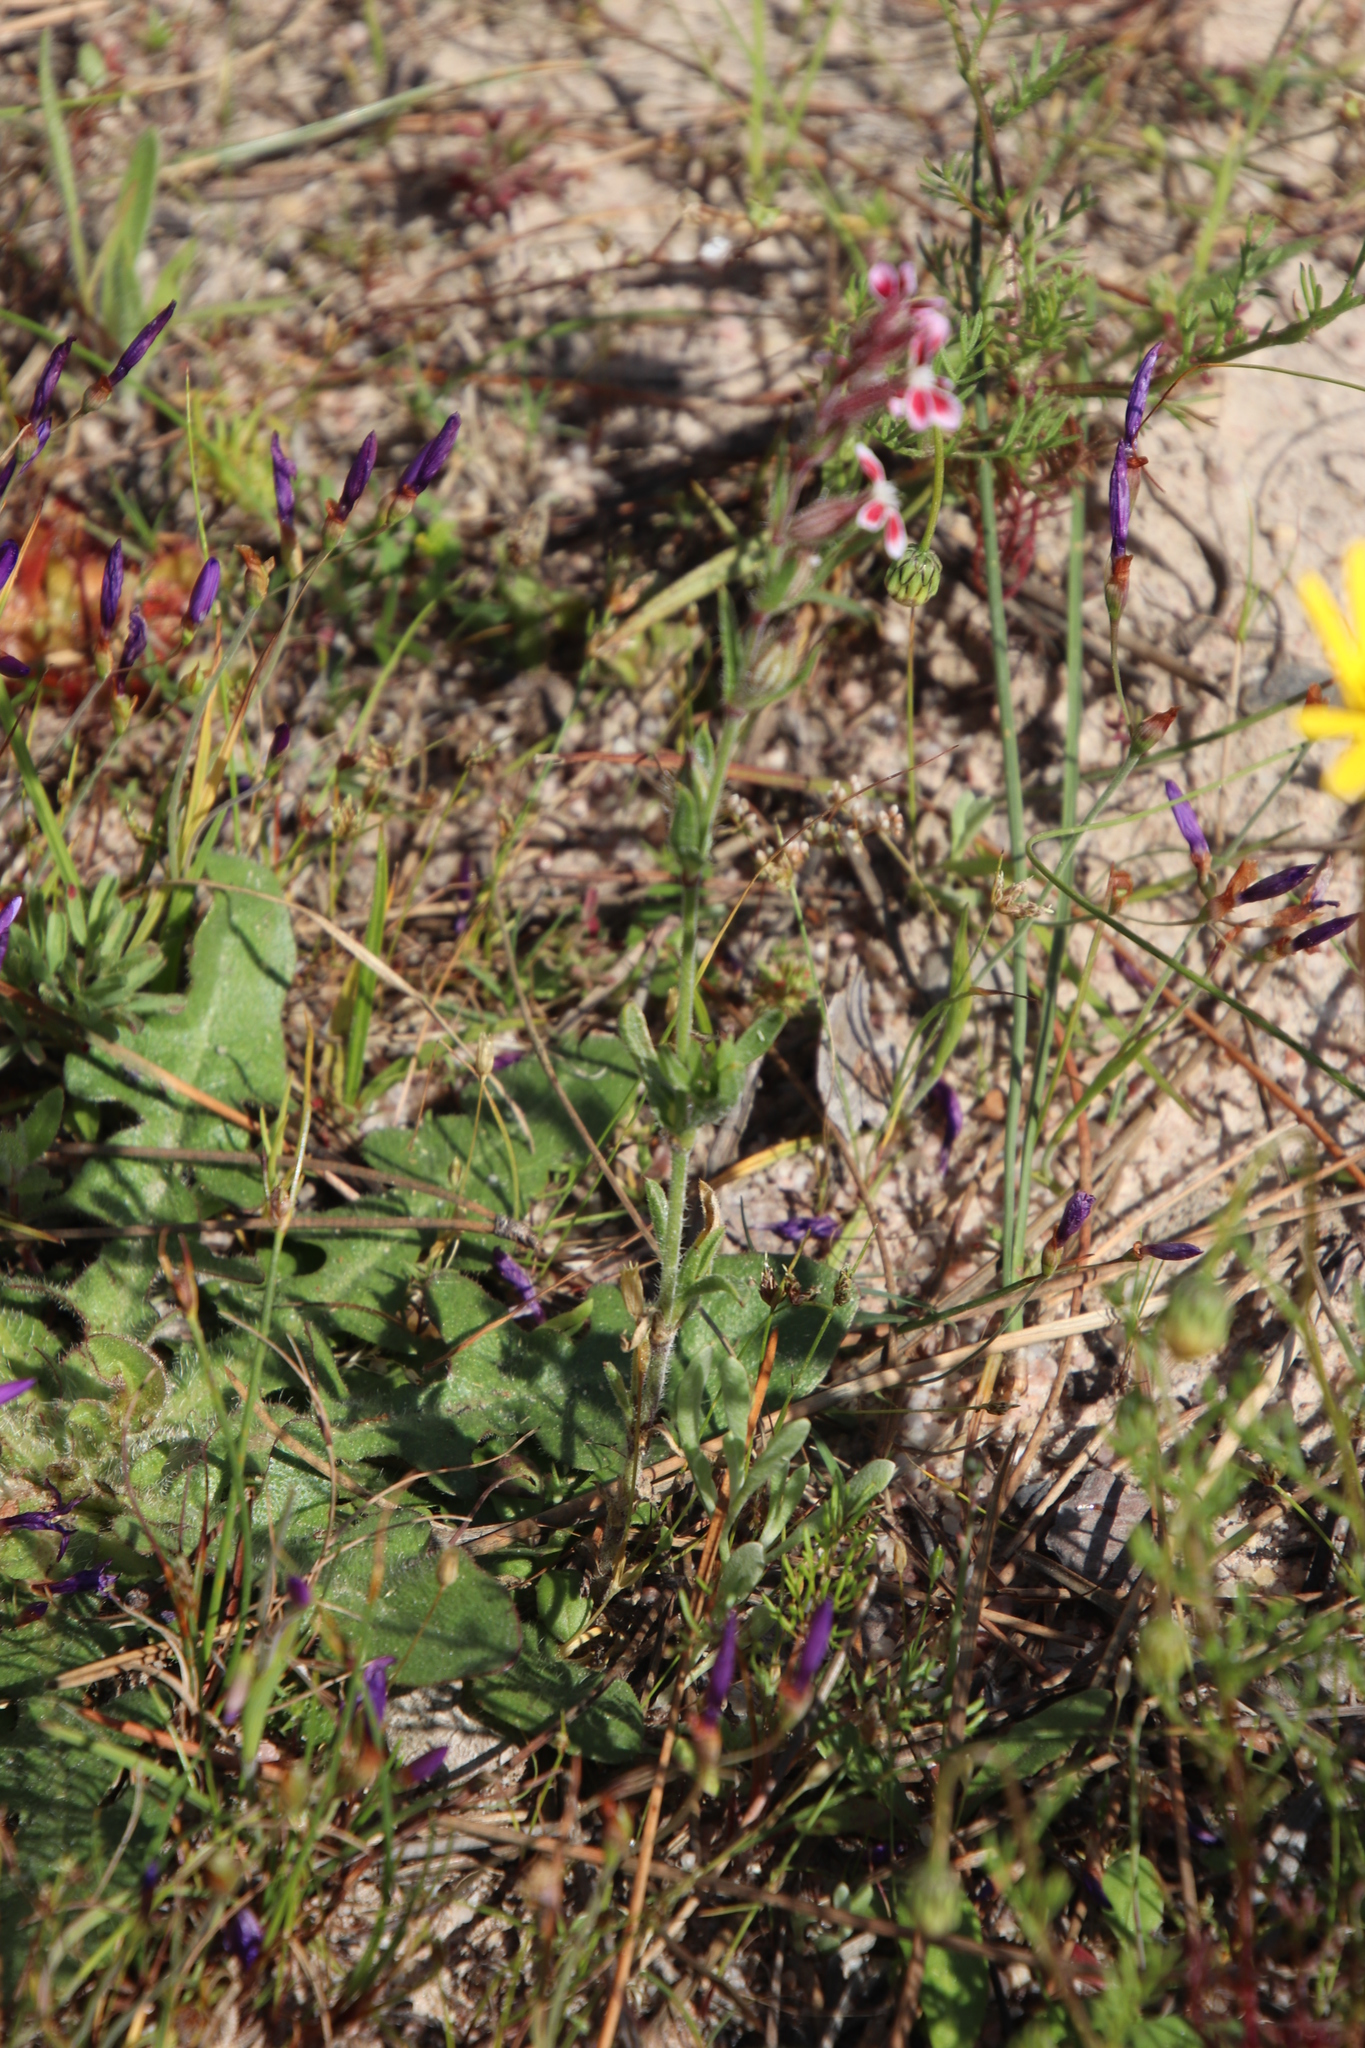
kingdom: Plantae
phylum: Tracheophyta
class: Magnoliopsida
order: Caryophyllales
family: Caryophyllaceae
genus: Silene
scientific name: Silene gallica
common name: Small-flowered catchfly
